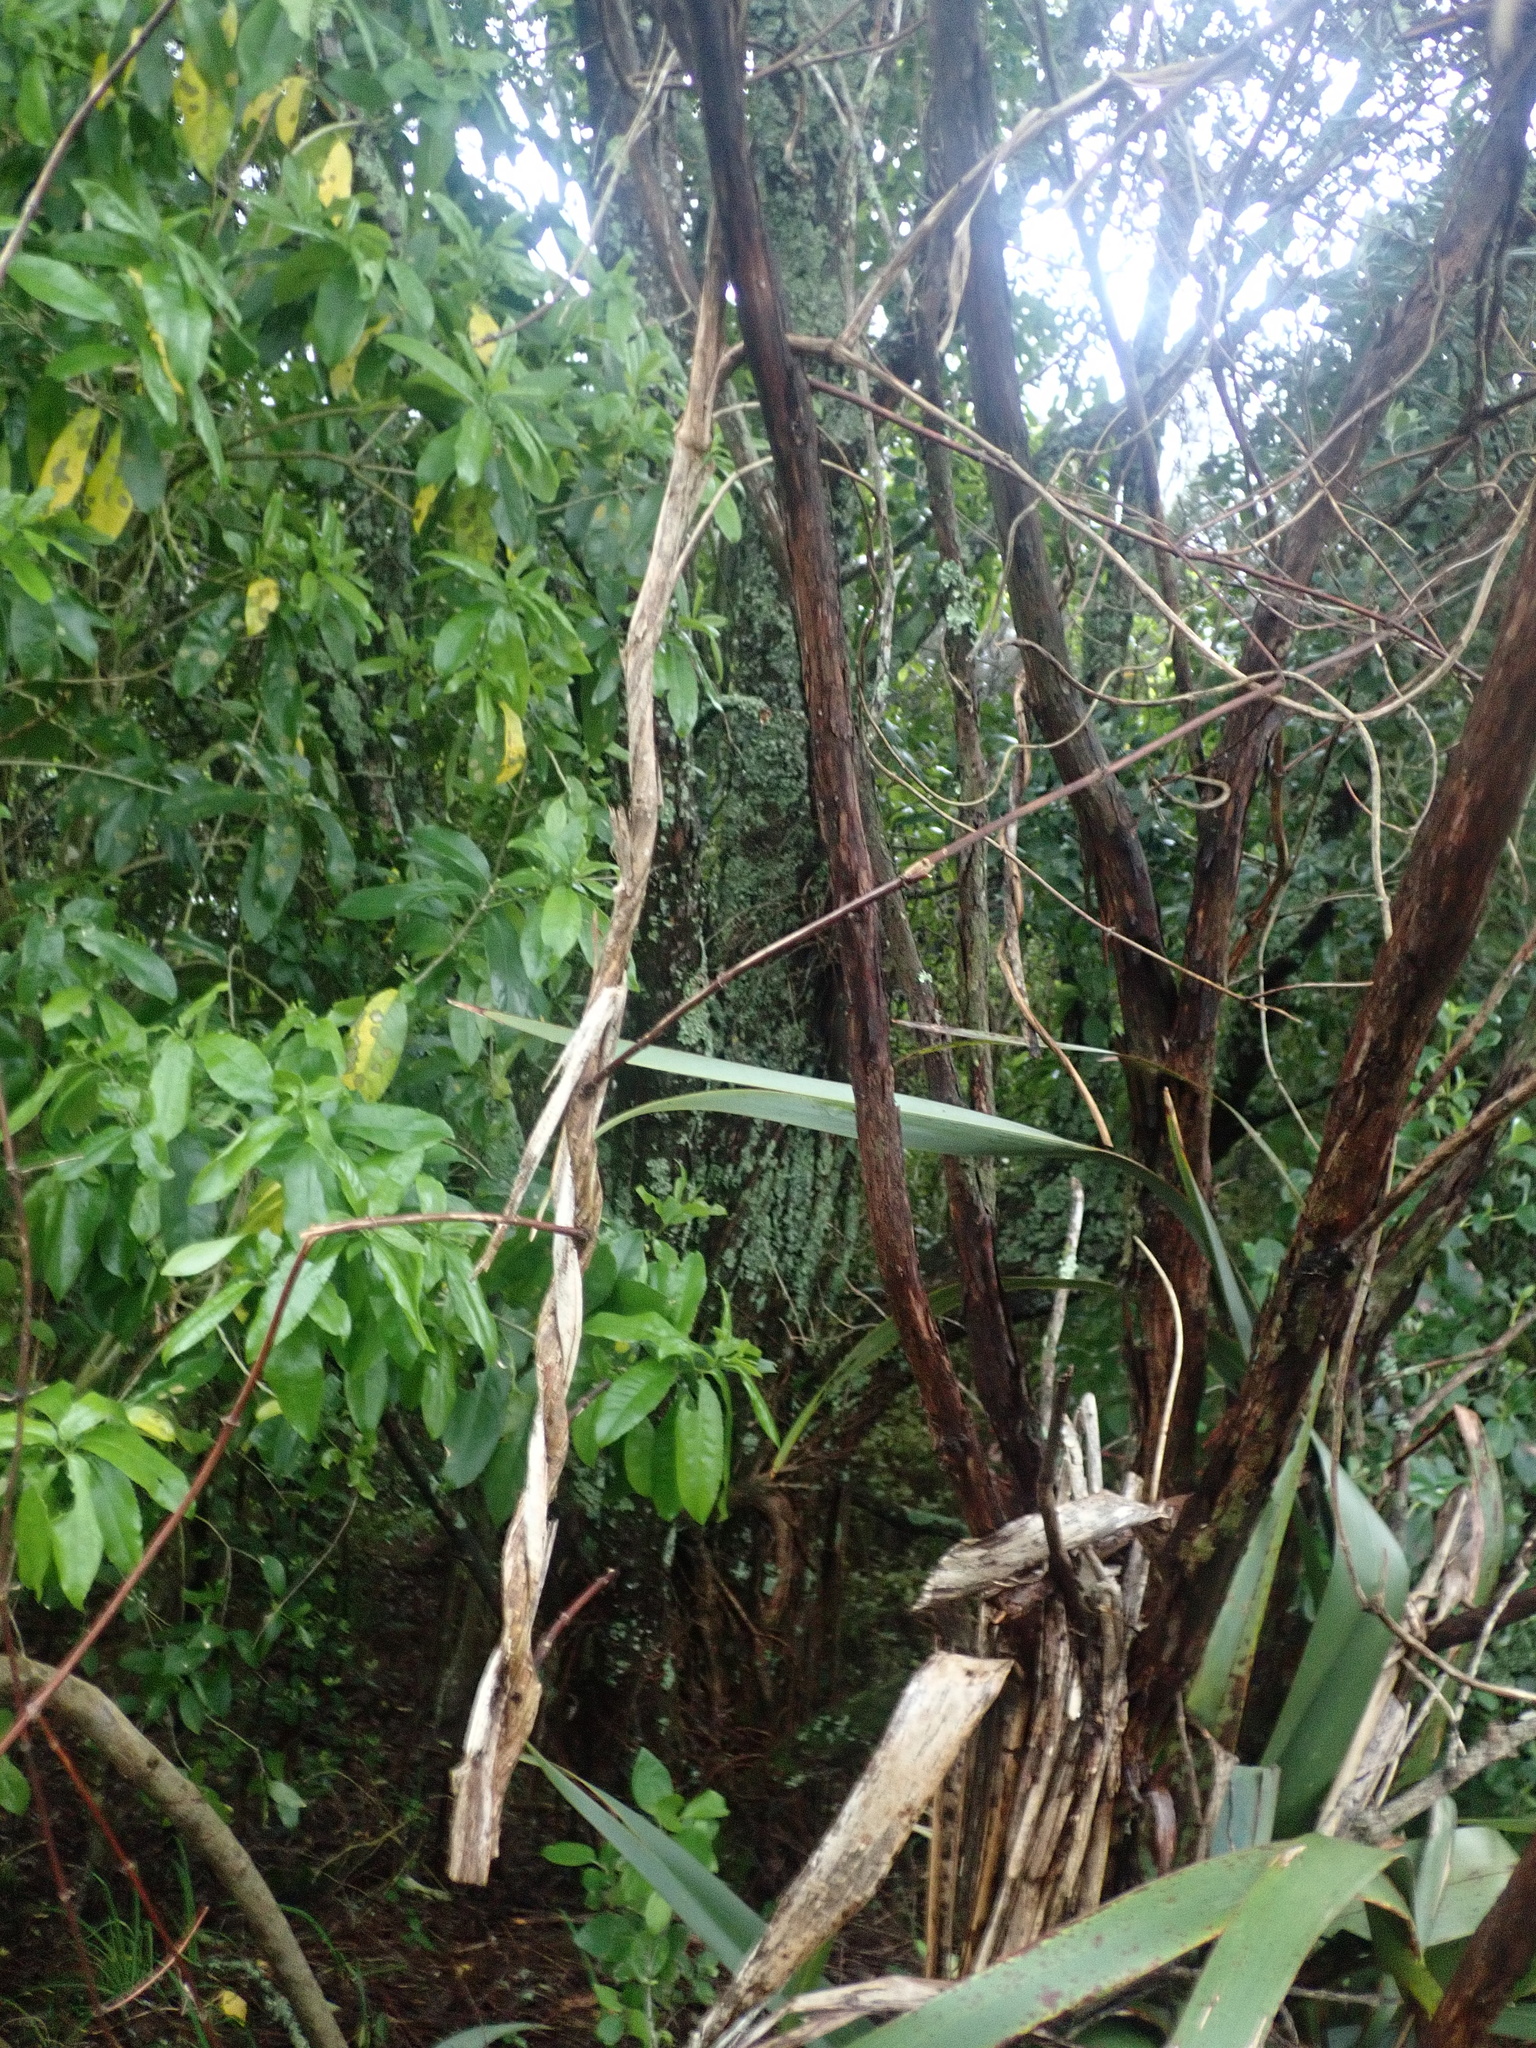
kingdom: Plantae
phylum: Tracheophyta
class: Magnoliopsida
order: Malpighiales
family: Violaceae
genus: Melicytus
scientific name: Melicytus ramiflorus
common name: Mahoe
